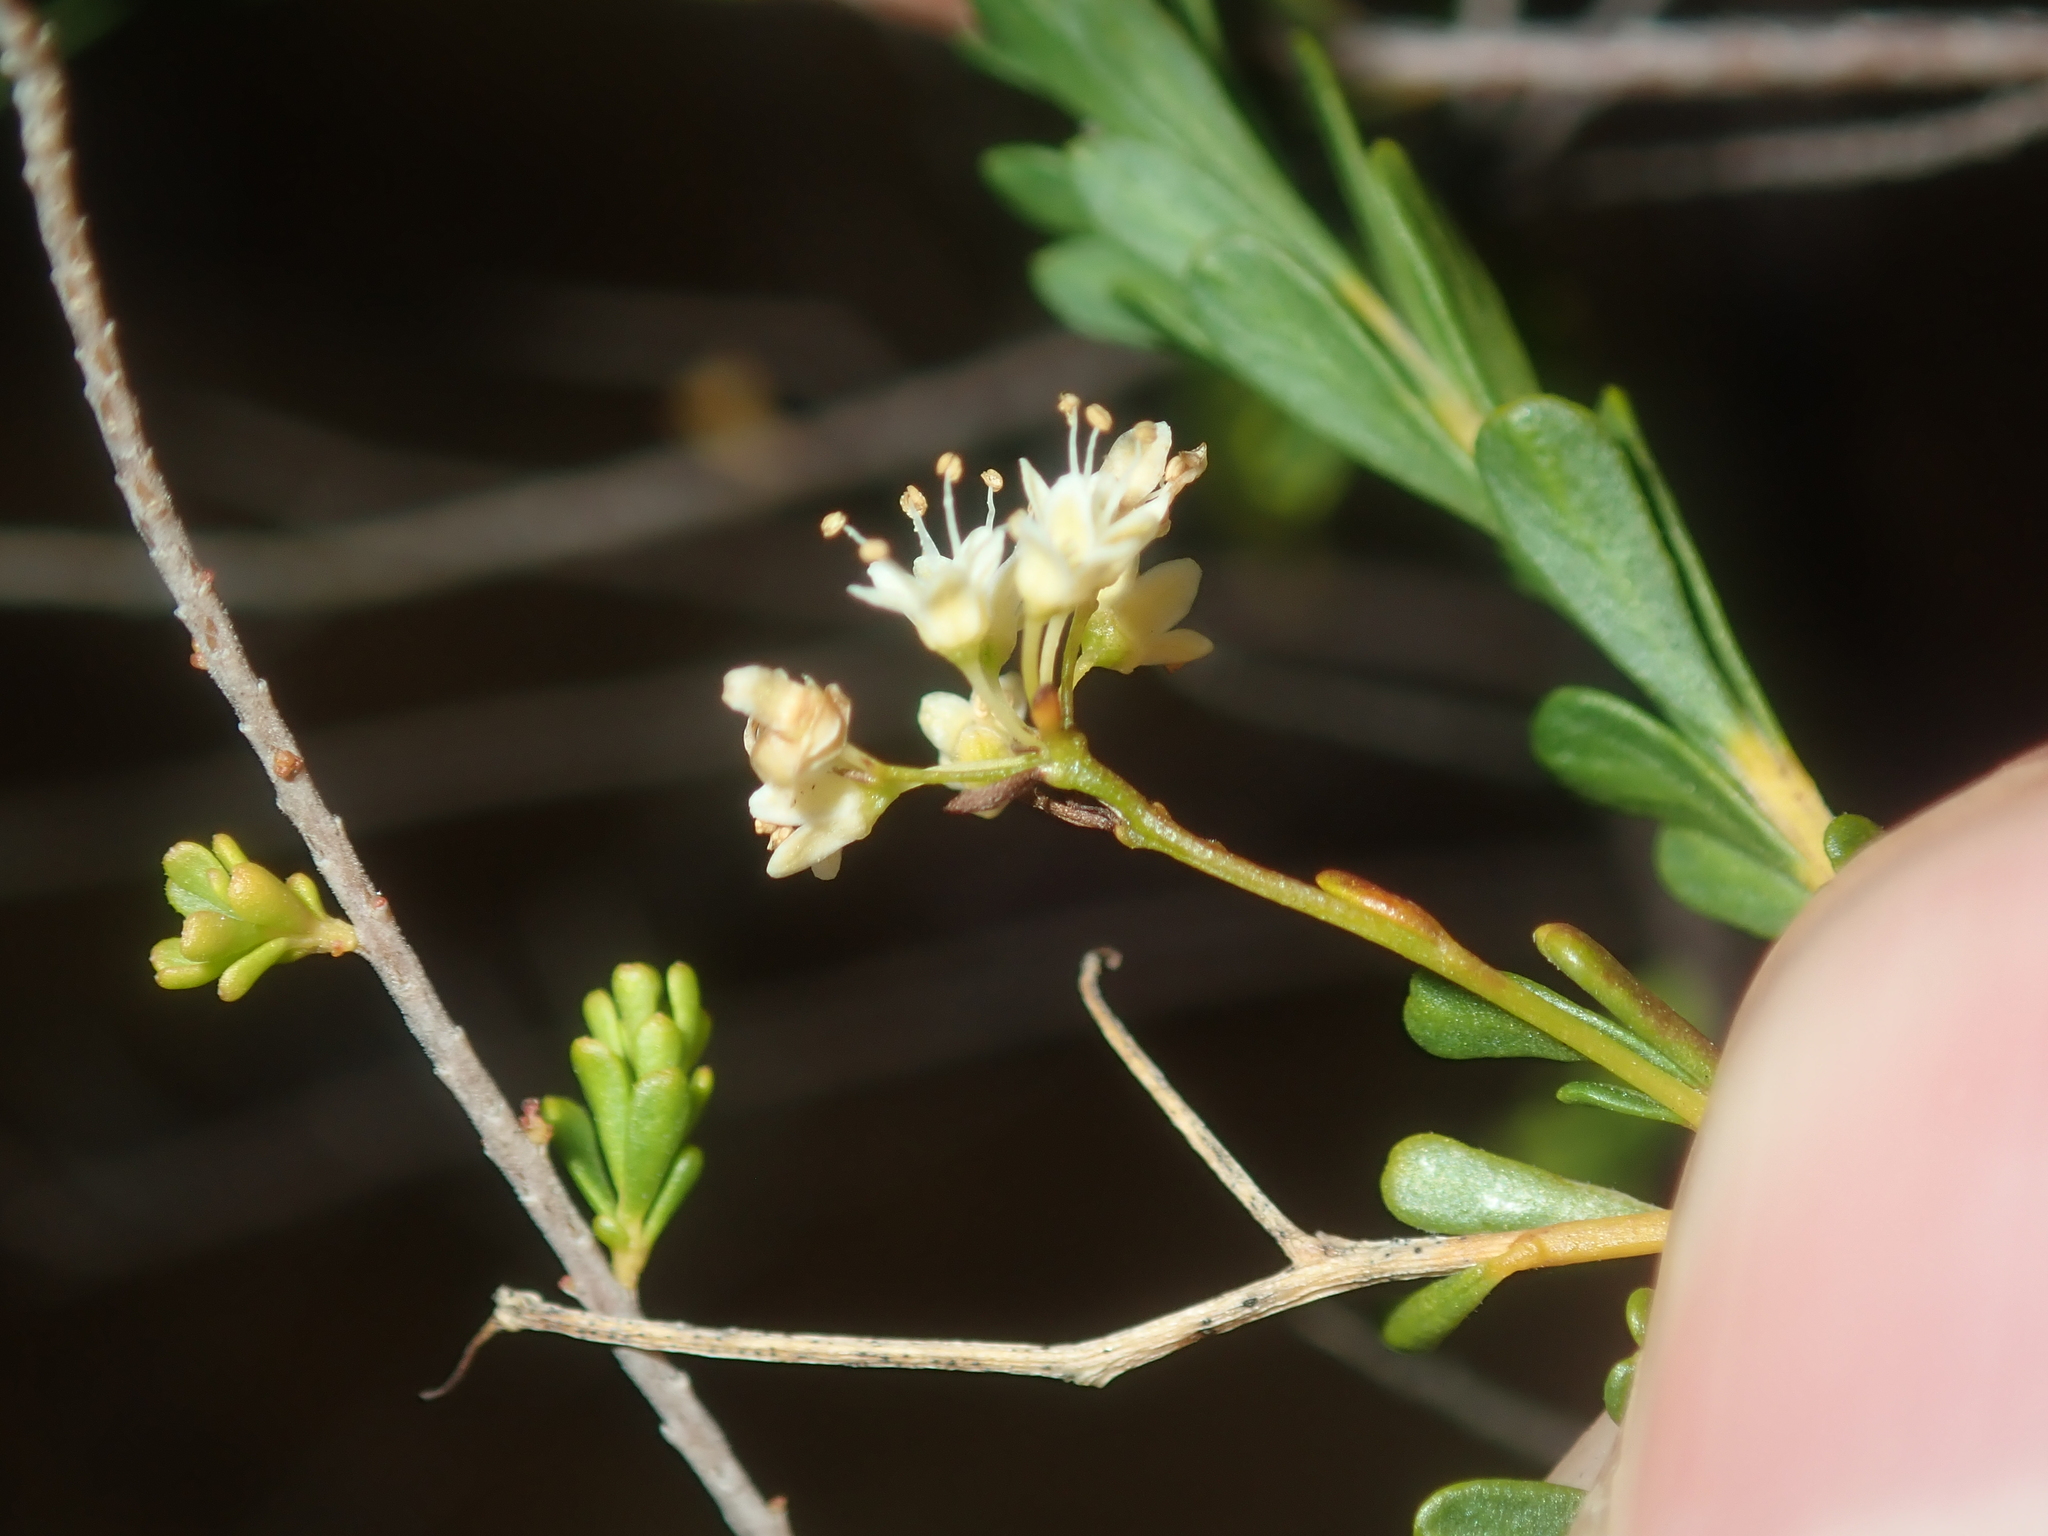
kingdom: Plantae
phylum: Tracheophyta
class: Magnoliopsida
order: Apiales
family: Apiaceae
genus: Platysace
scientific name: Platysace trachymenioides
